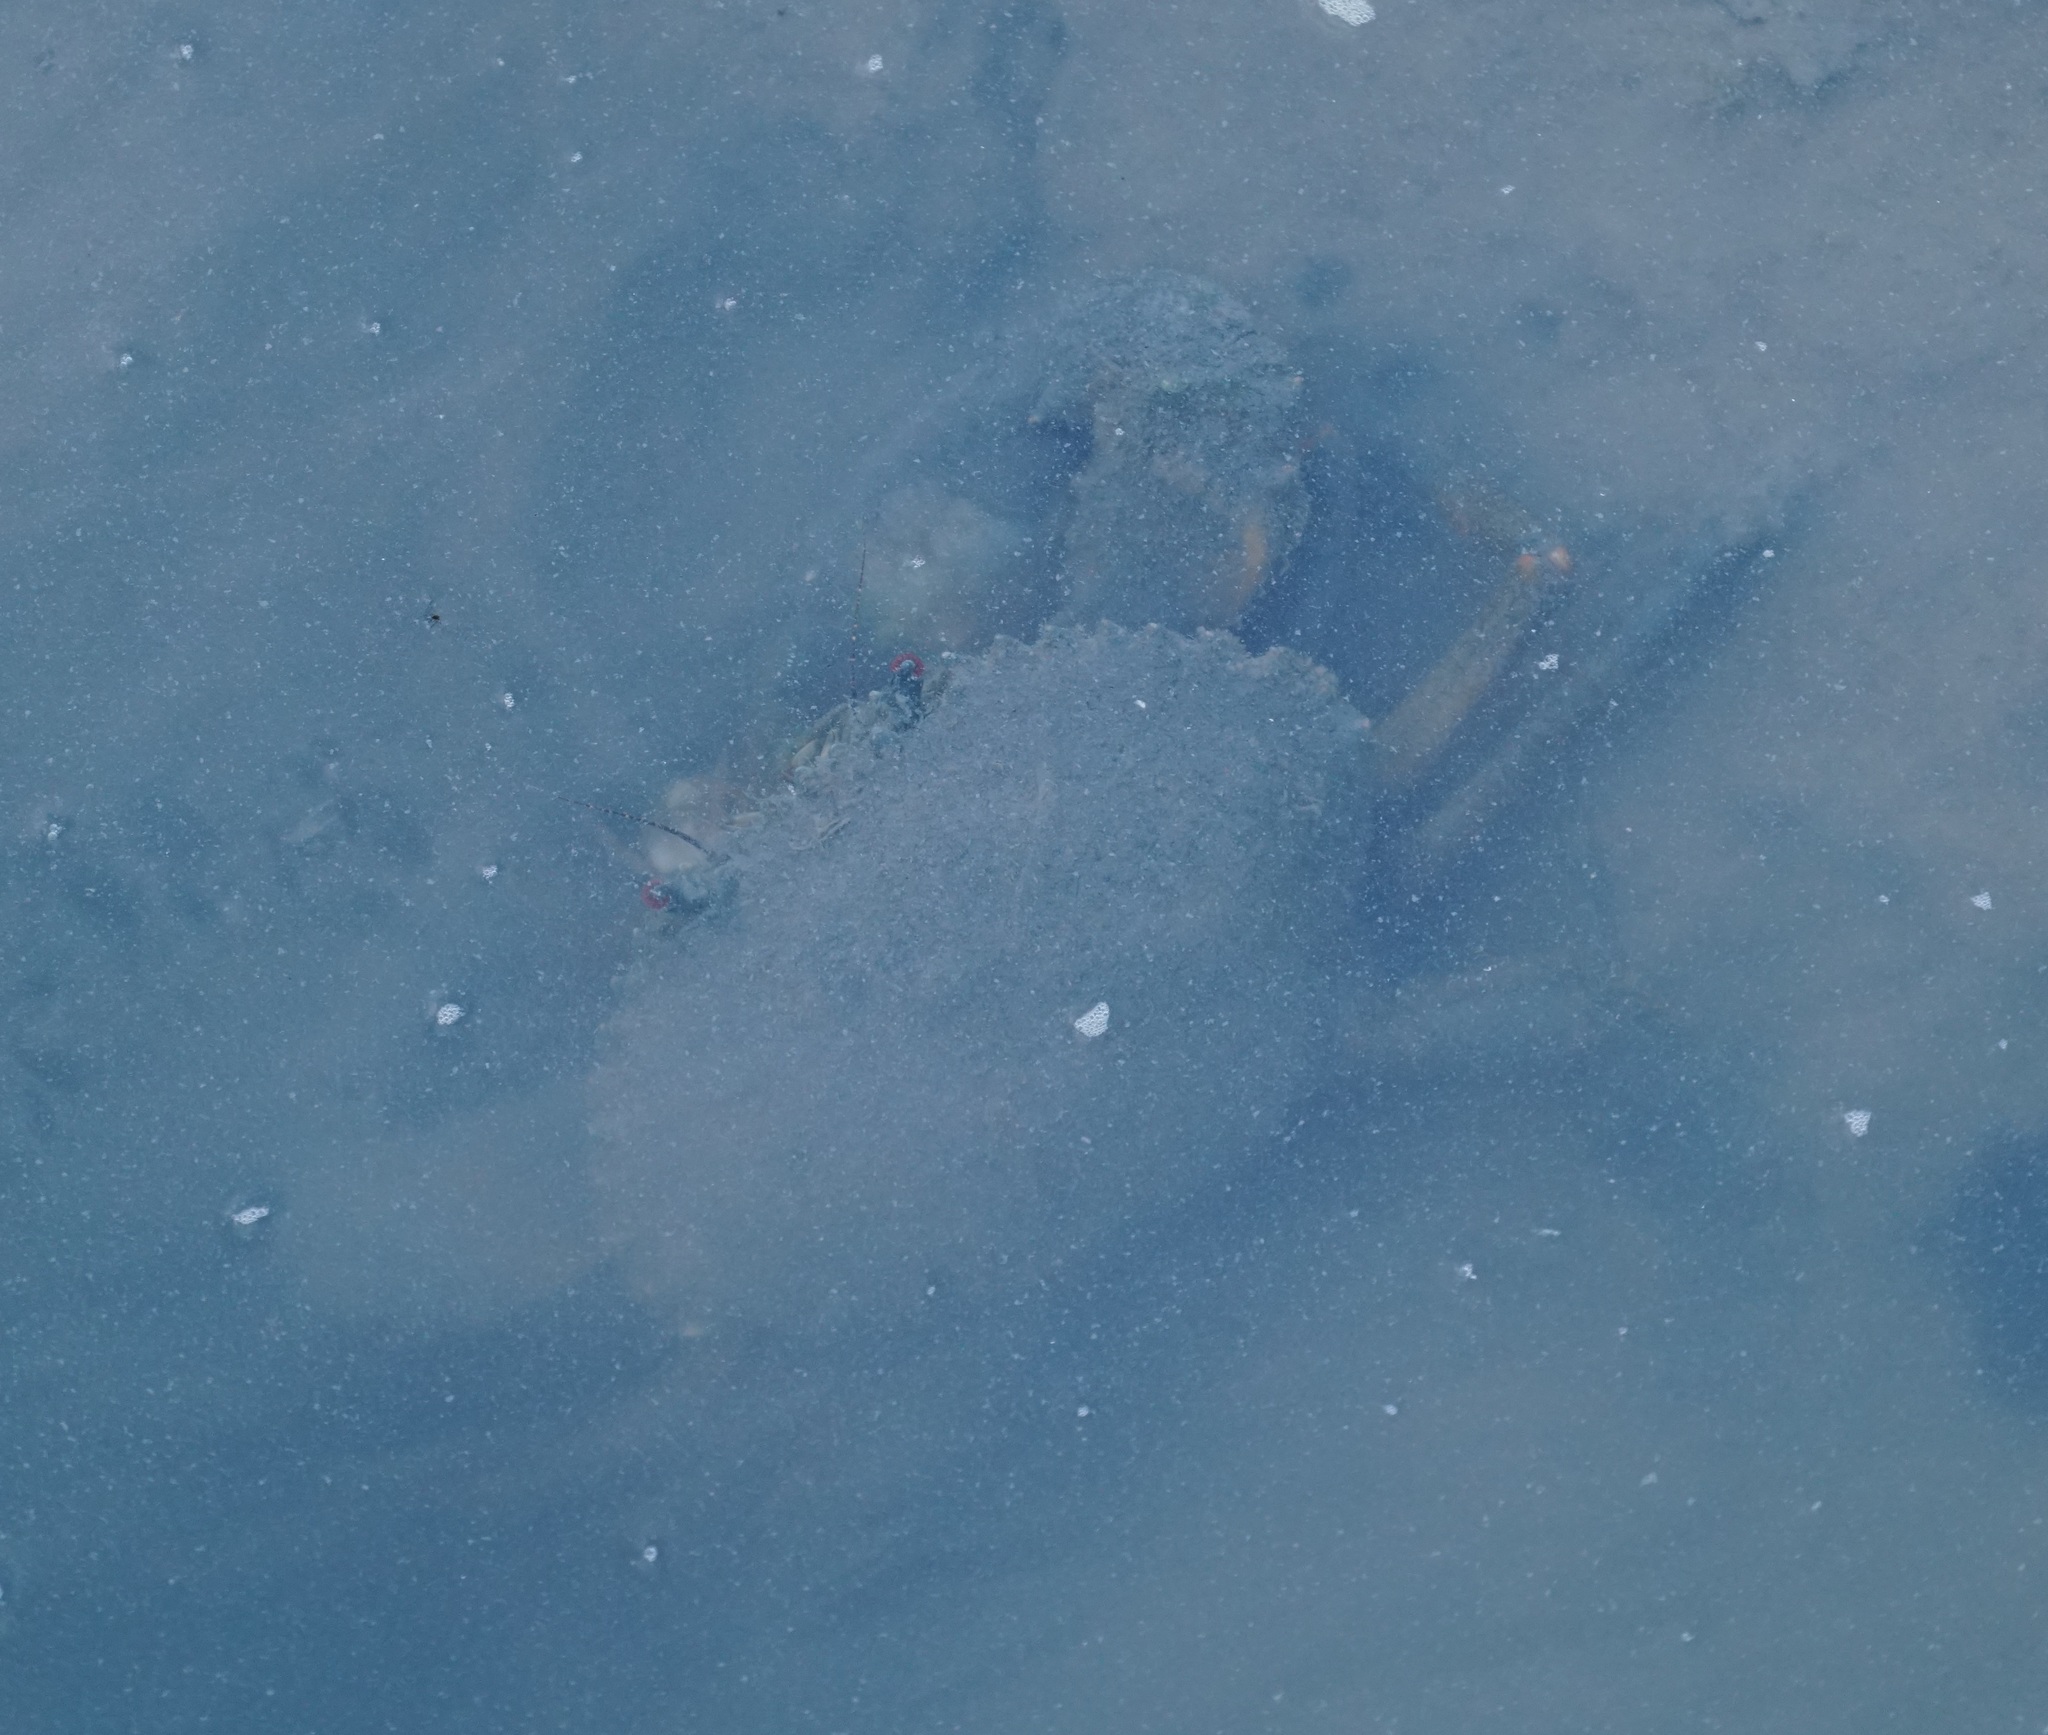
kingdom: Animalia
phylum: Arthropoda
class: Malacostraca
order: Decapoda
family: Portunidae
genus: Scylla
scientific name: Scylla serrata
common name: Giant mud crab
